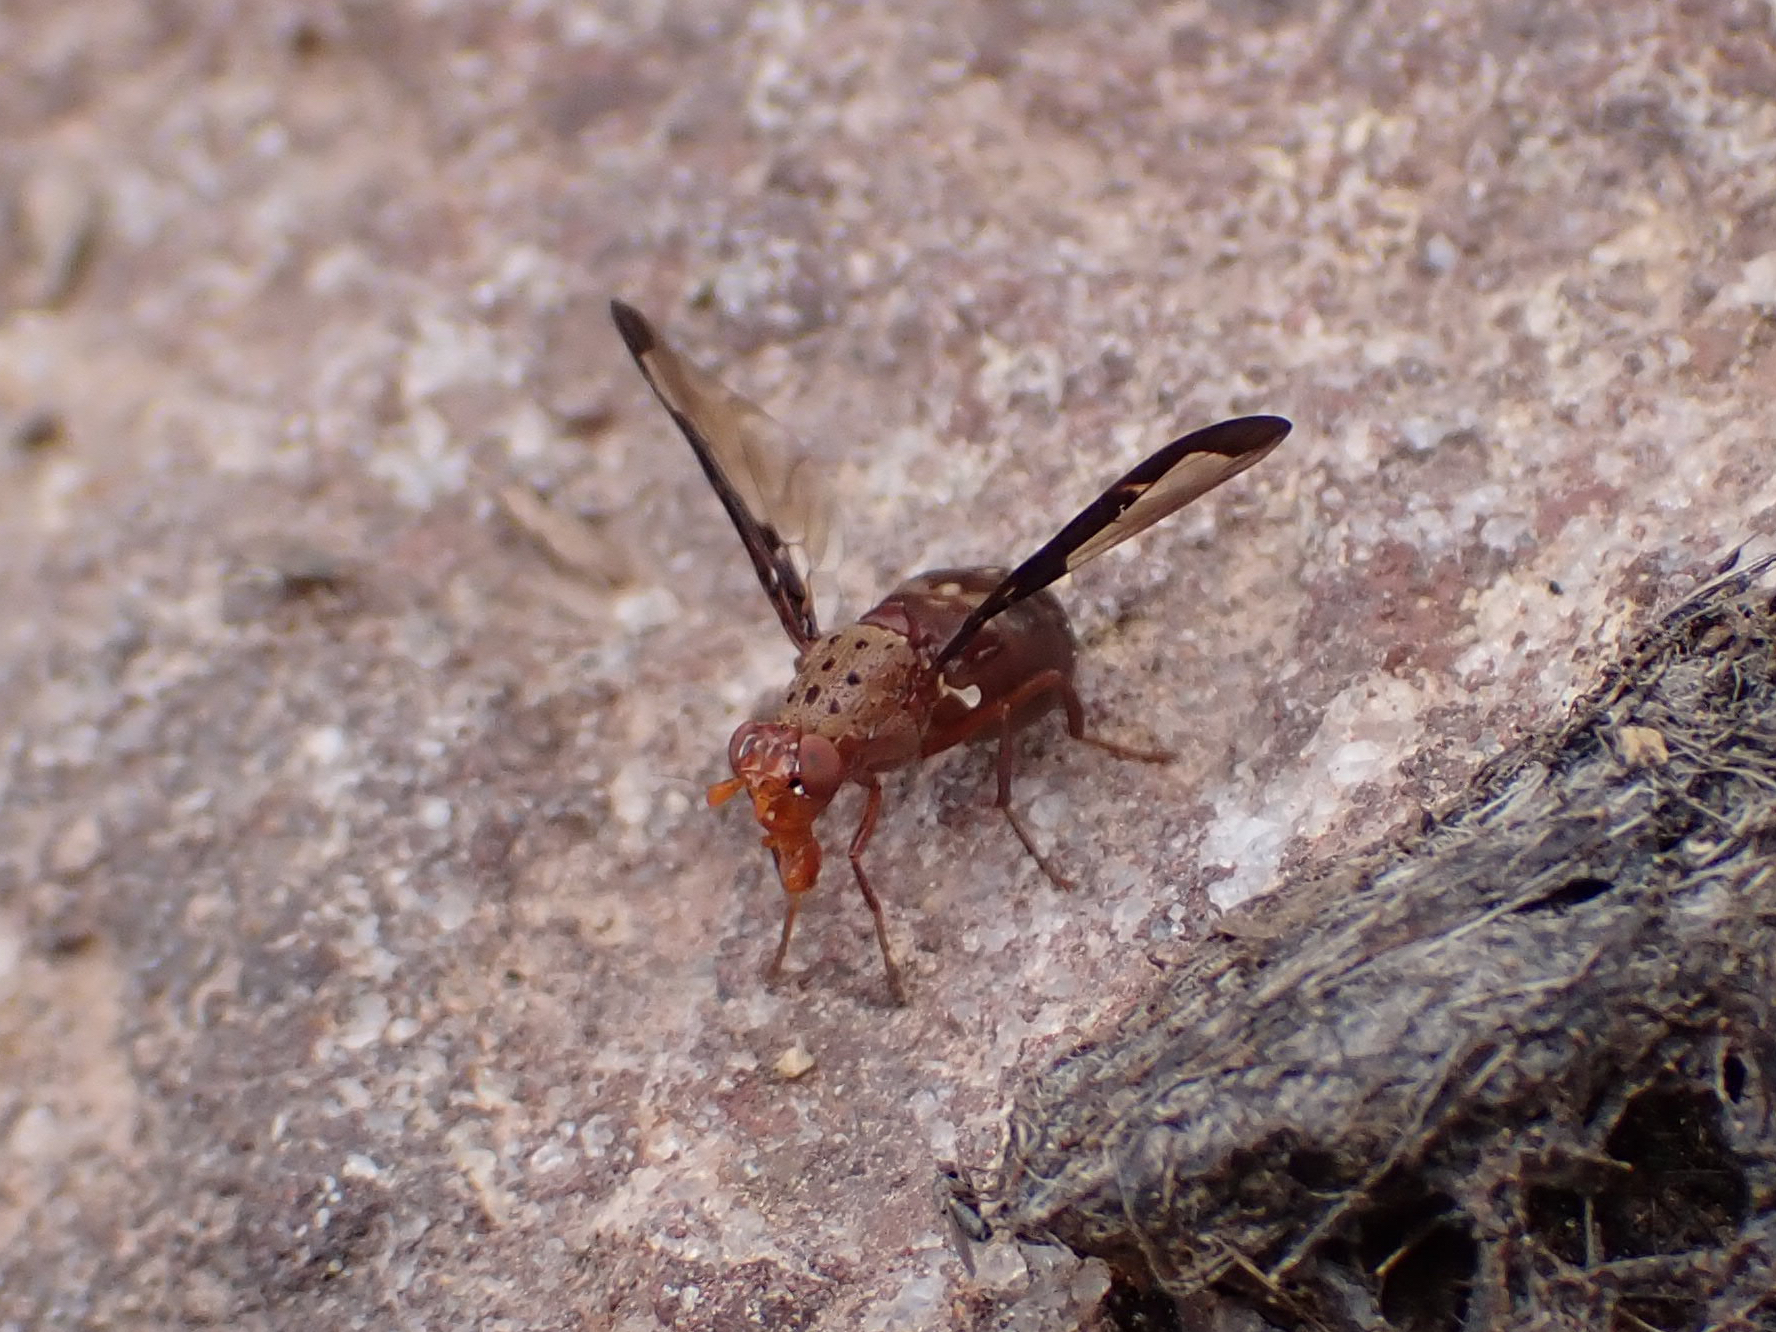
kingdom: Animalia
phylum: Arthropoda
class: Insecta
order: Diptera
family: Ulidiidae
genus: Diacrita
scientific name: Diacrita costalis
